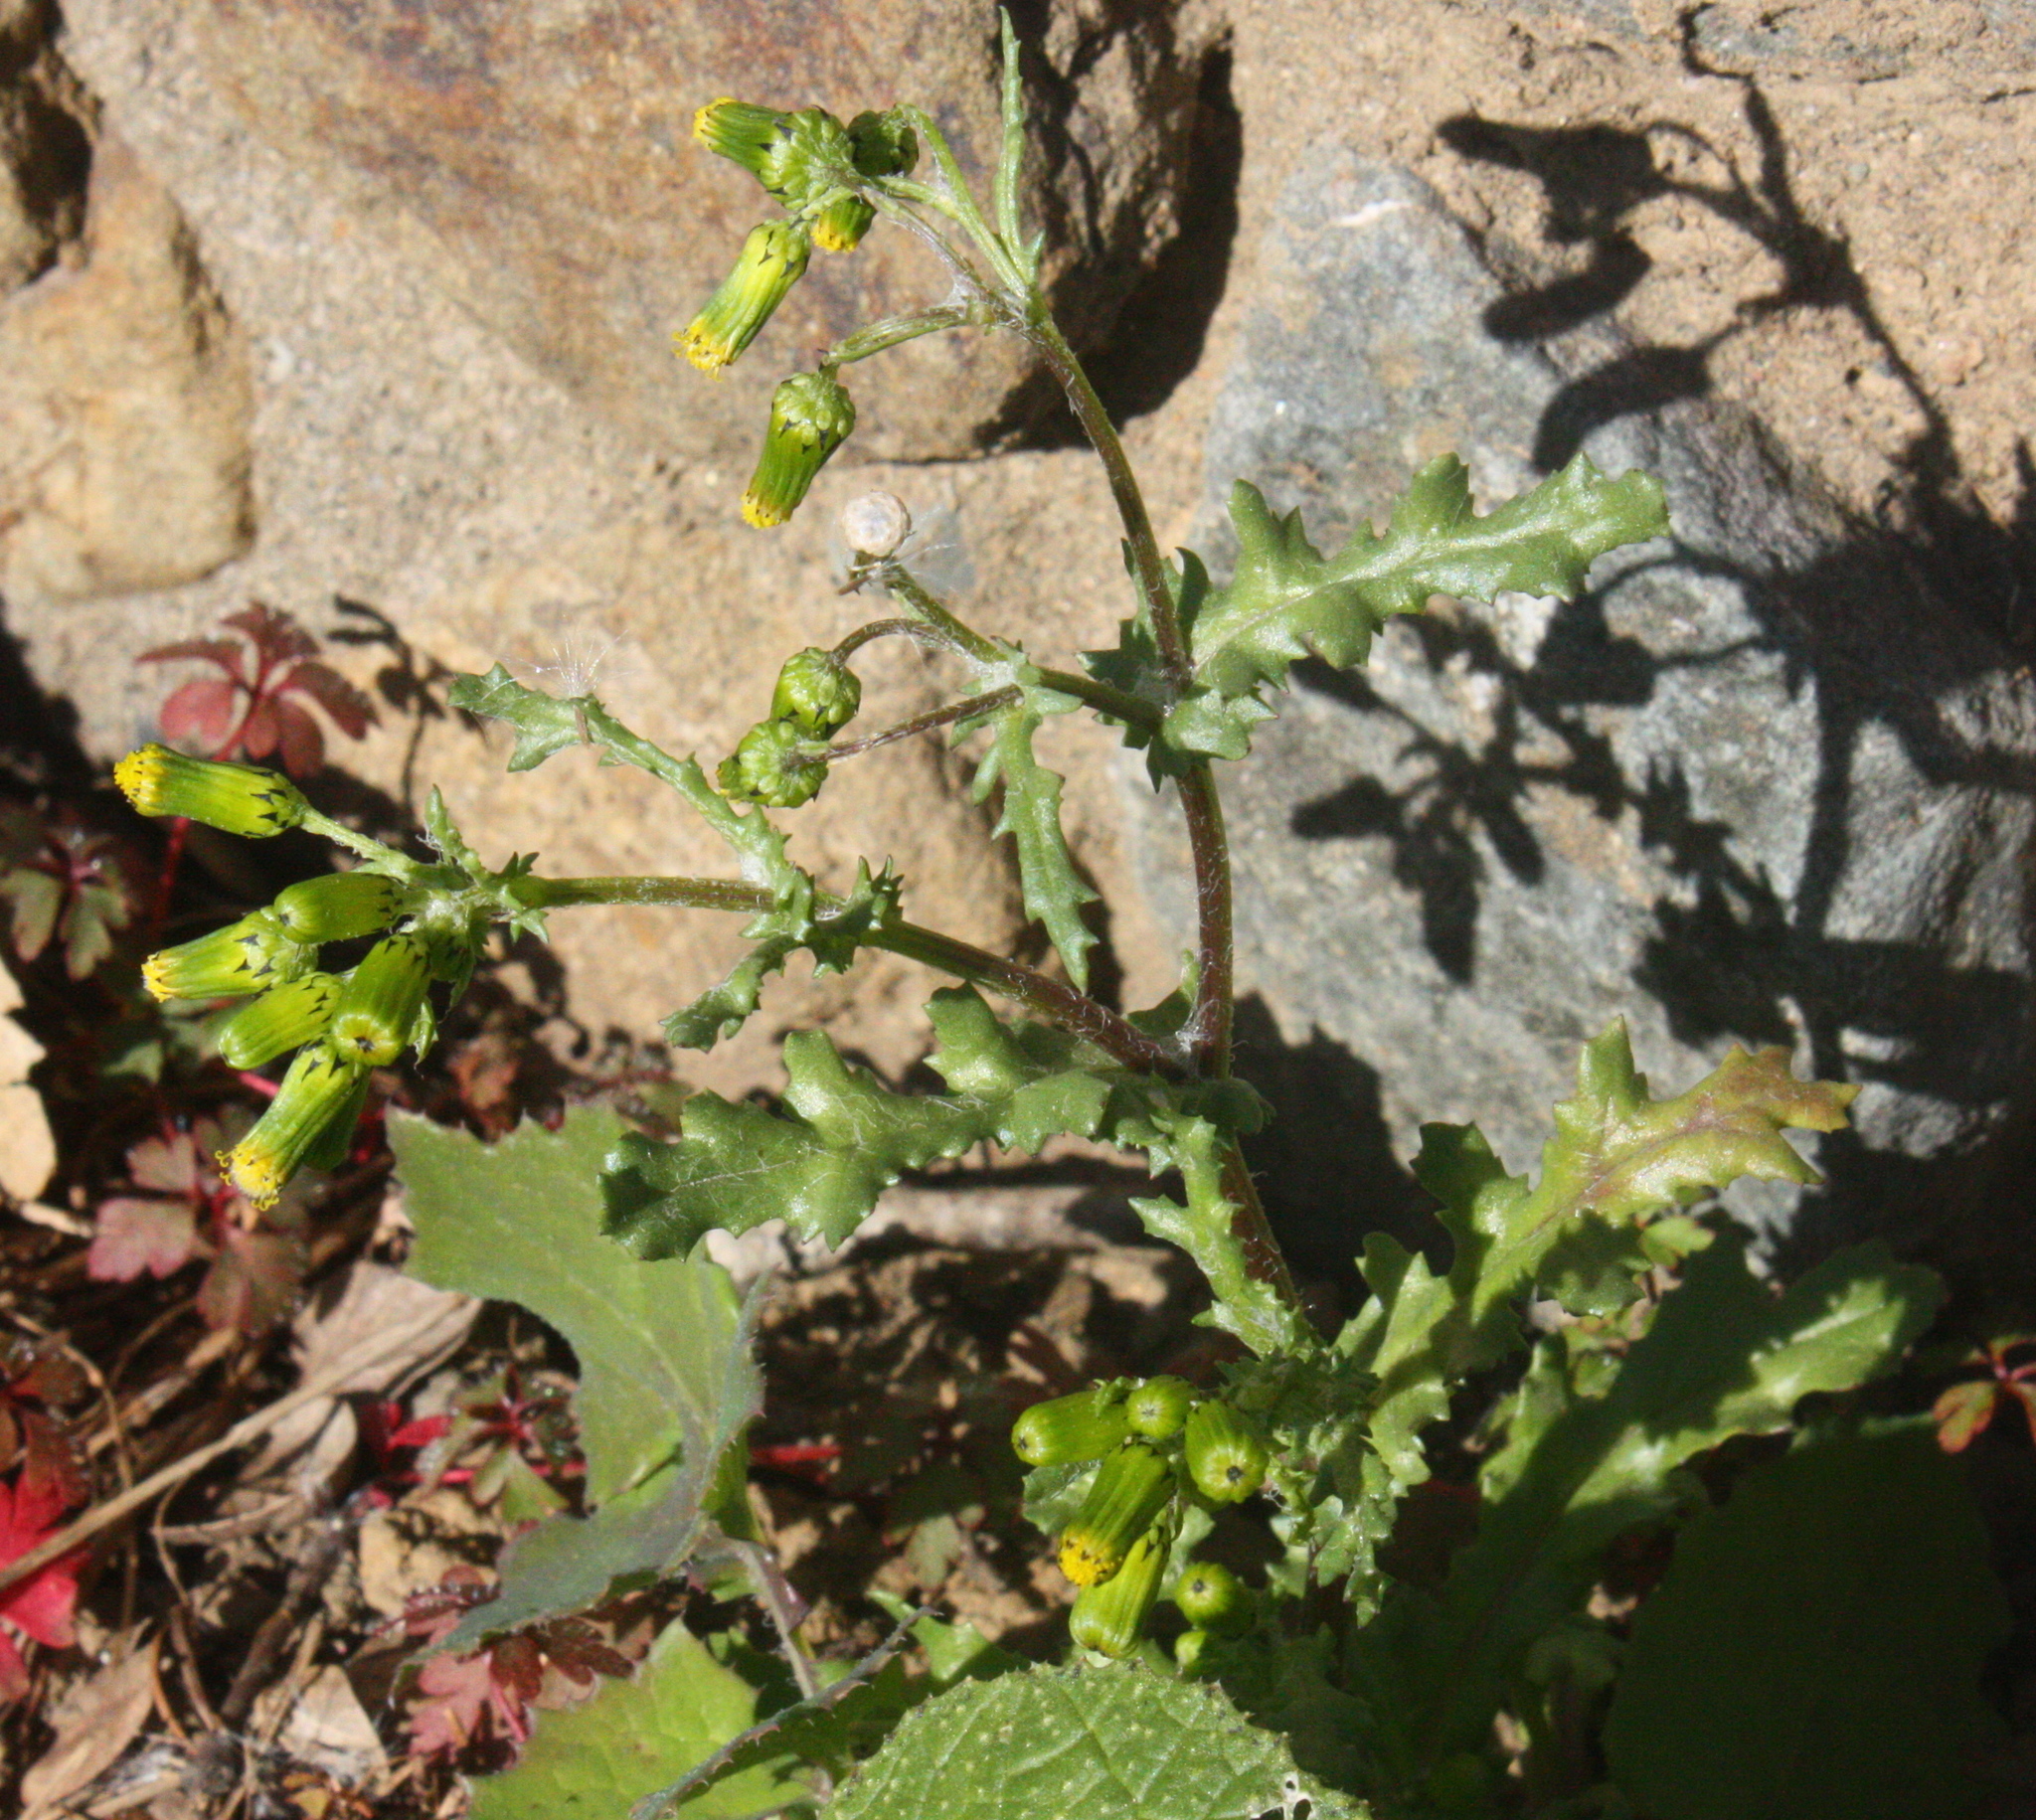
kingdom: Plantae
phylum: Tracheophyta
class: Magnoliopsida
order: Asterales
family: Asteraceae
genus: Senecio
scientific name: Senecio vulgaris
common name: Old-man-in-the-spring
